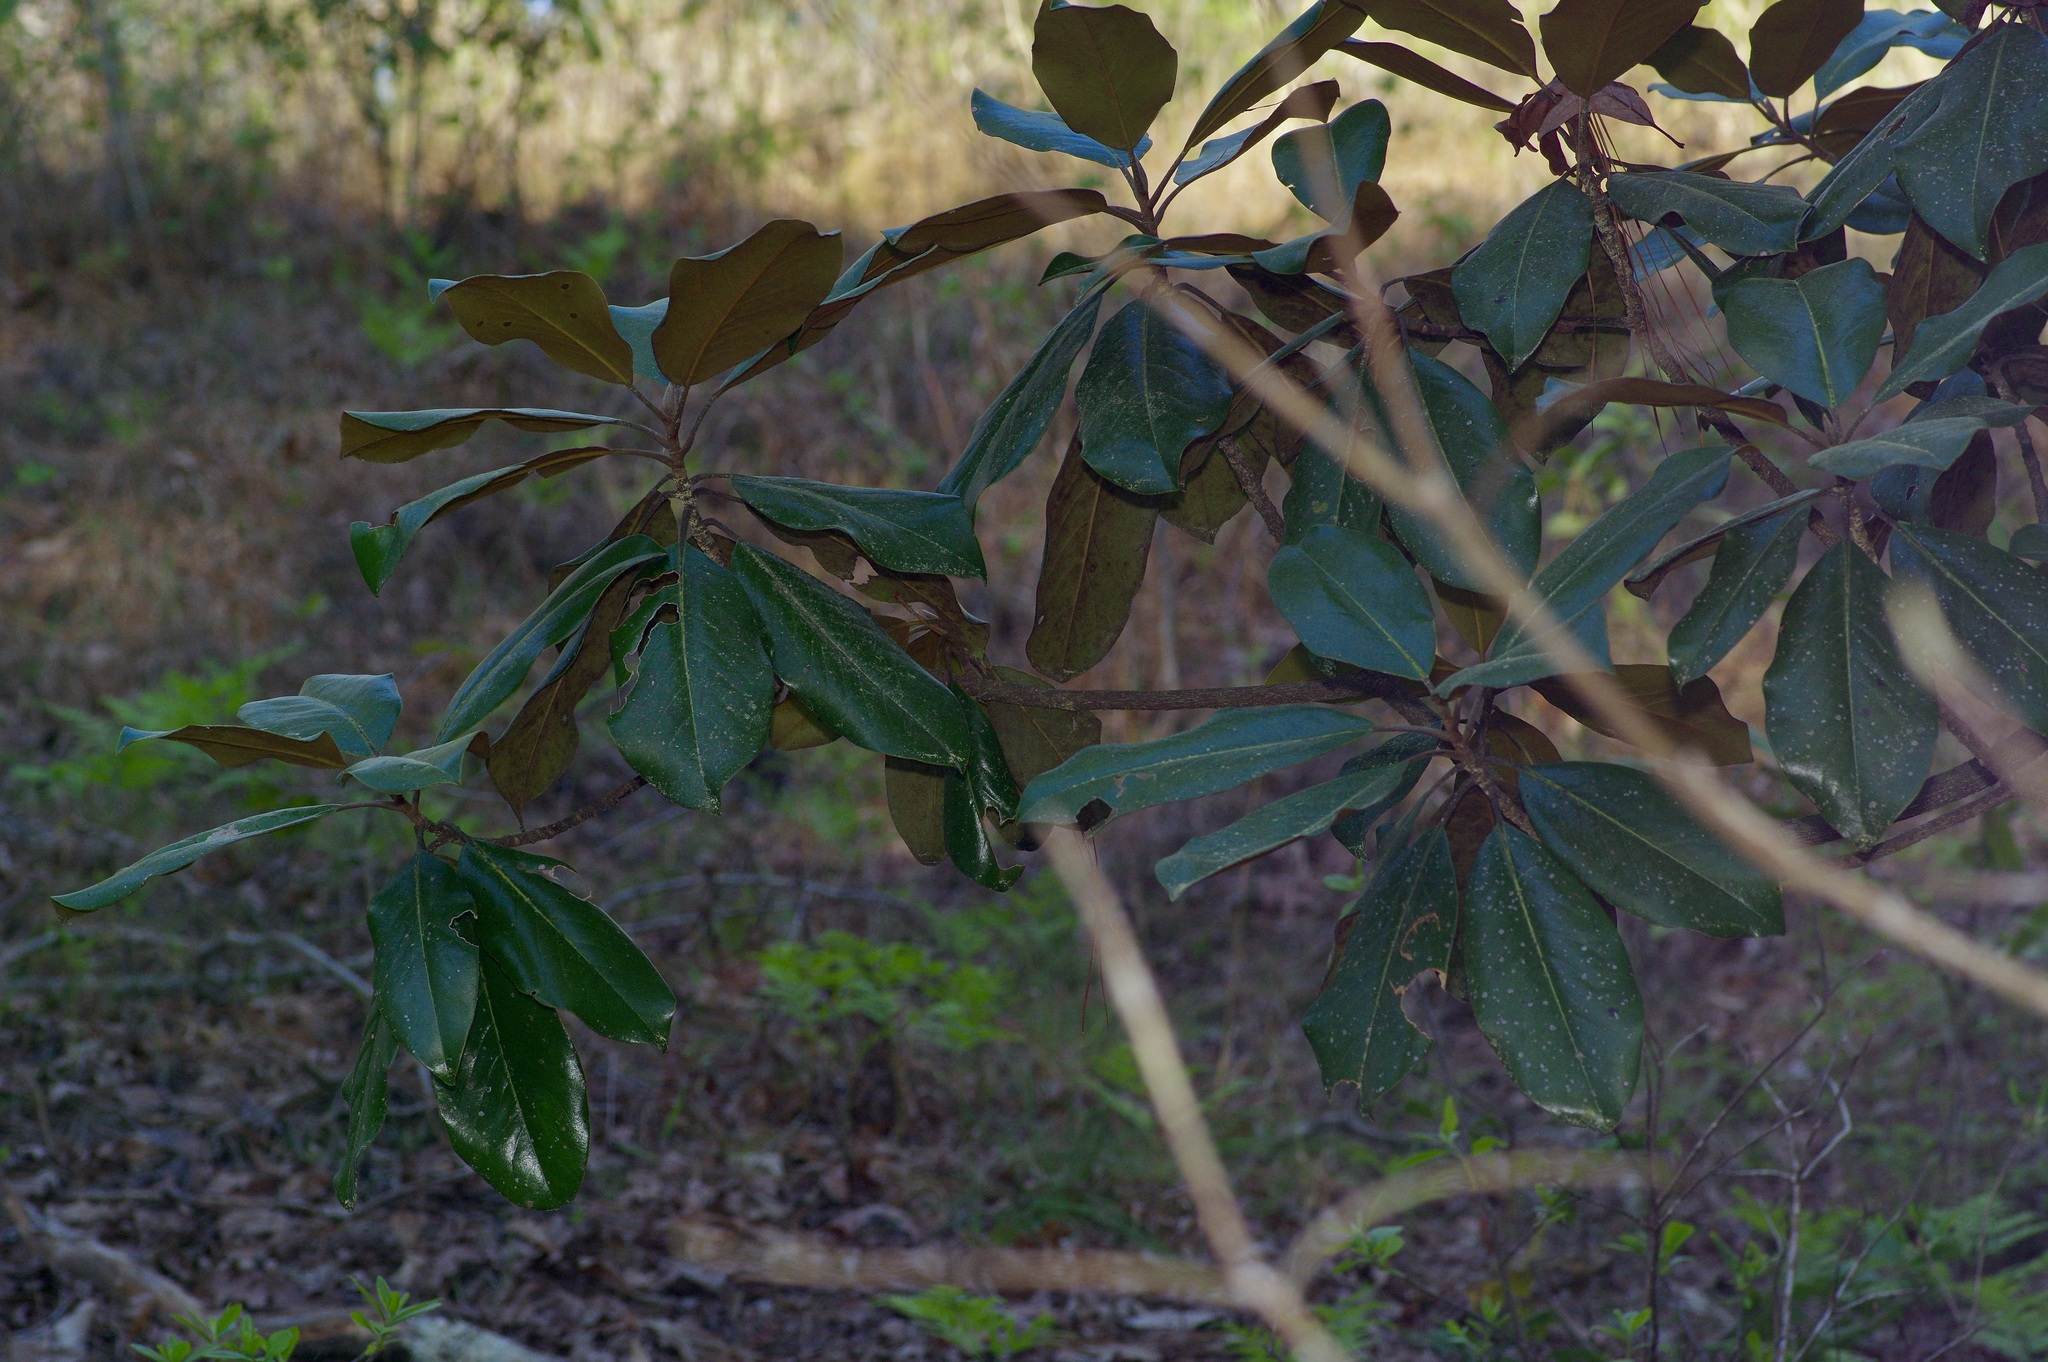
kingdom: Plantae
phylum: Tracheophyta
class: Magnoliopsida
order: Magnoliales
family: Magnoliaceae
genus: Magnolia
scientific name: Magnolia grandiflora
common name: Southern magnolia
